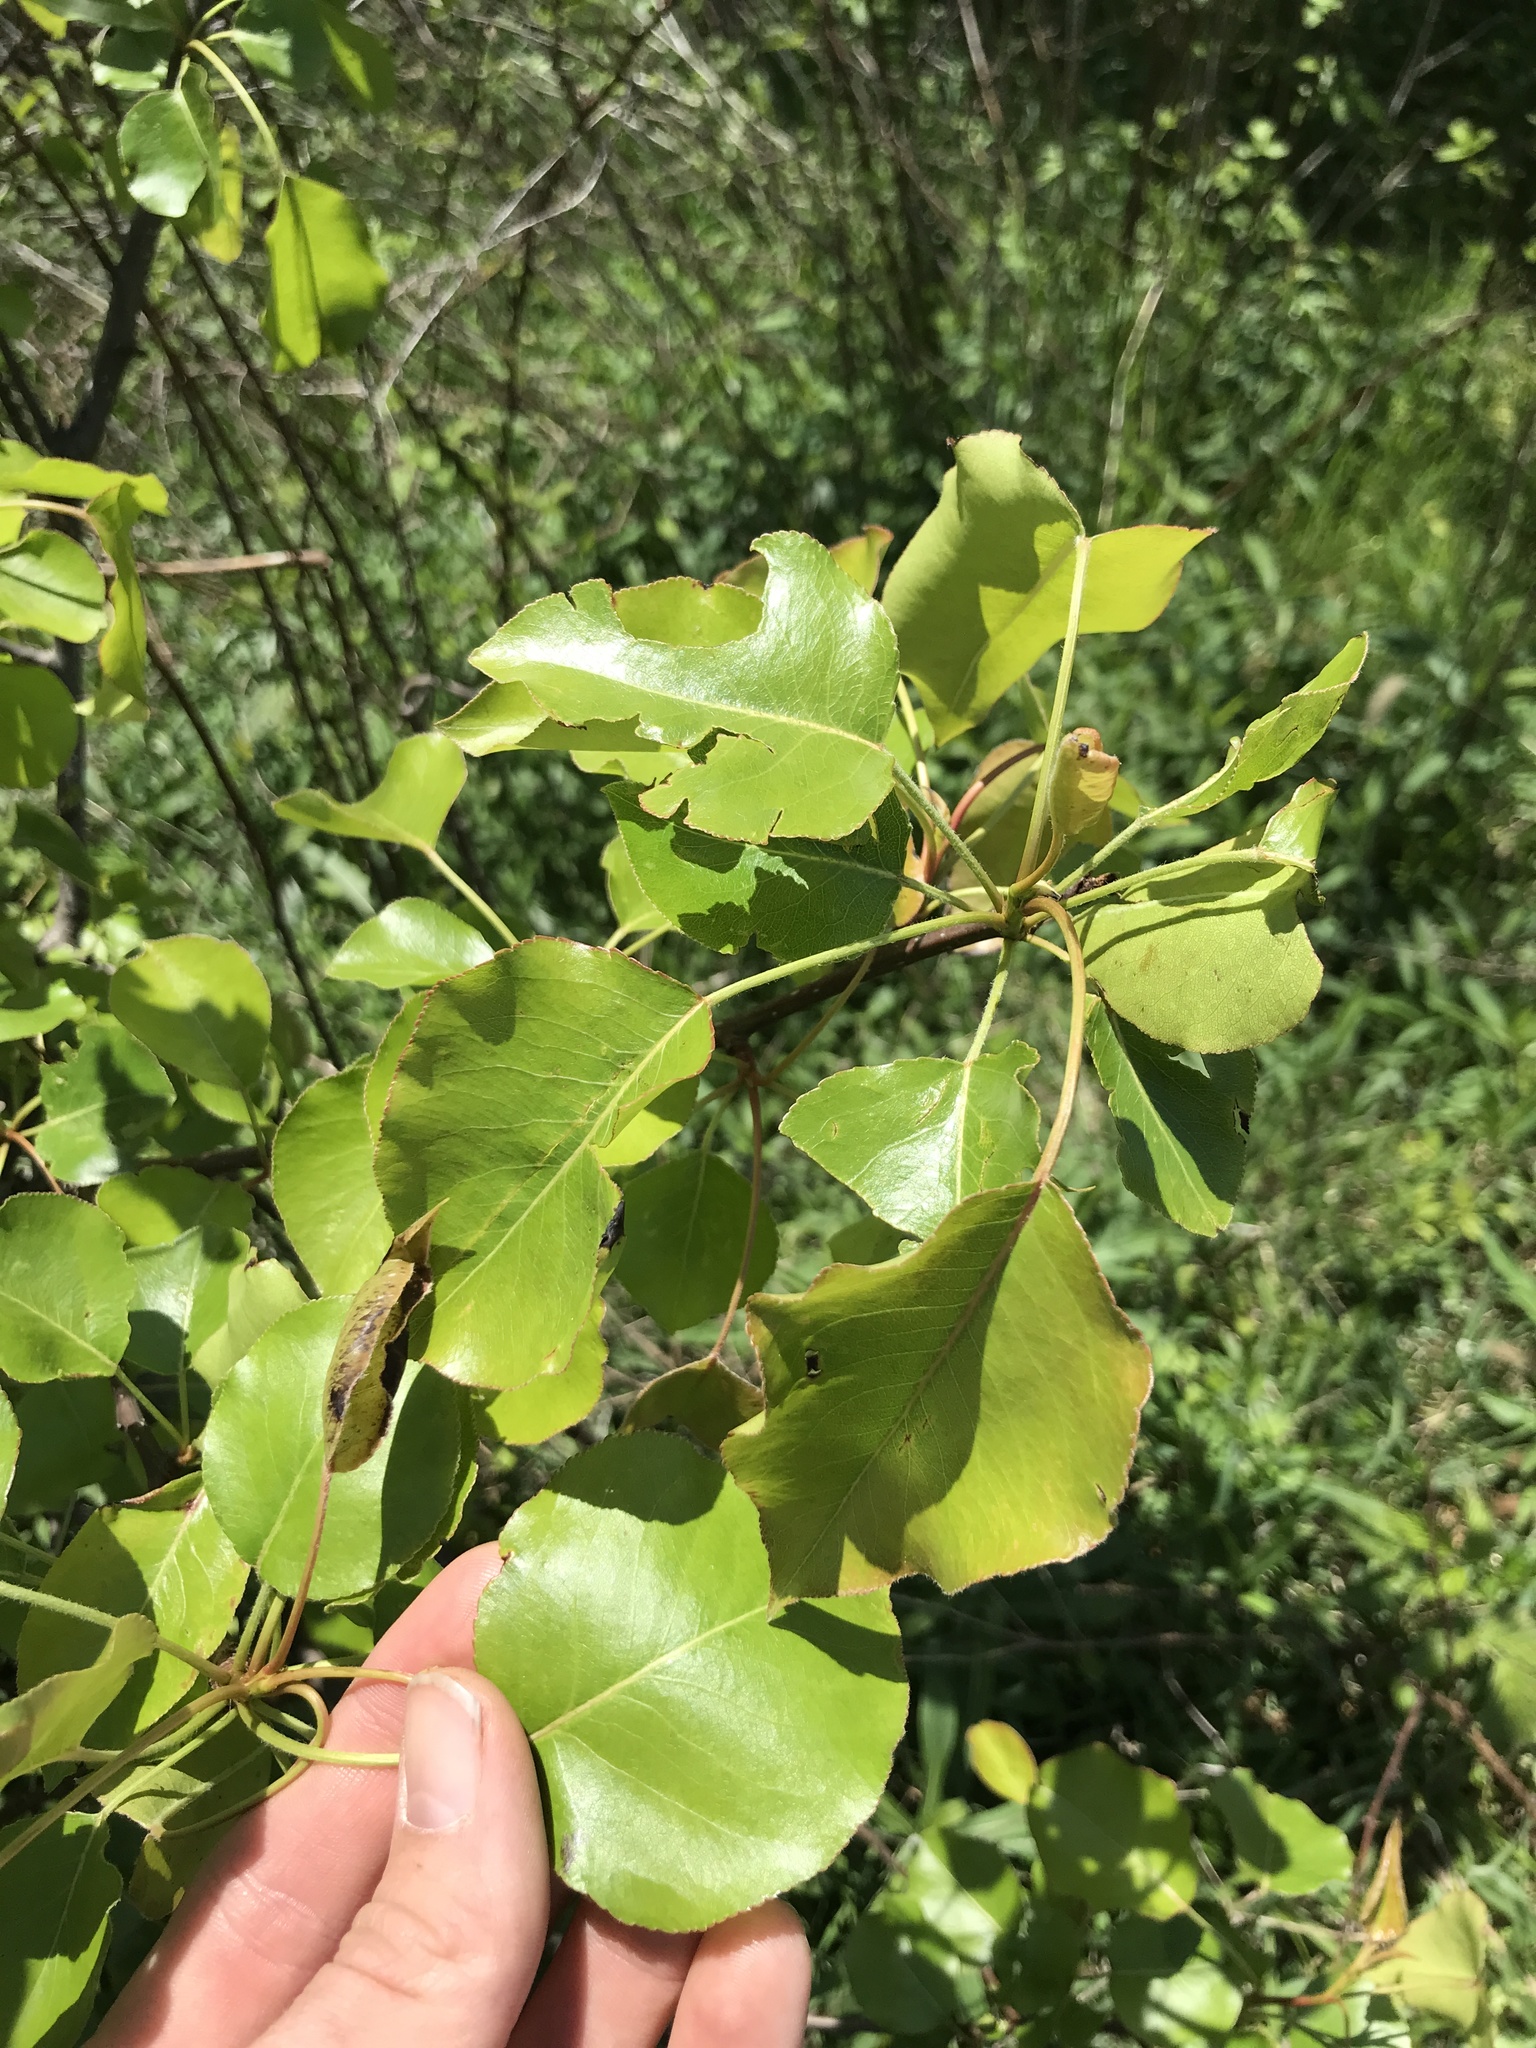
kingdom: Plantae
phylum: Tracheophyta
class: Magnoliopsida
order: Rosales
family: Rosaceae
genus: Pyrus
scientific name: Pyrus calleryana
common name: Callery pear
